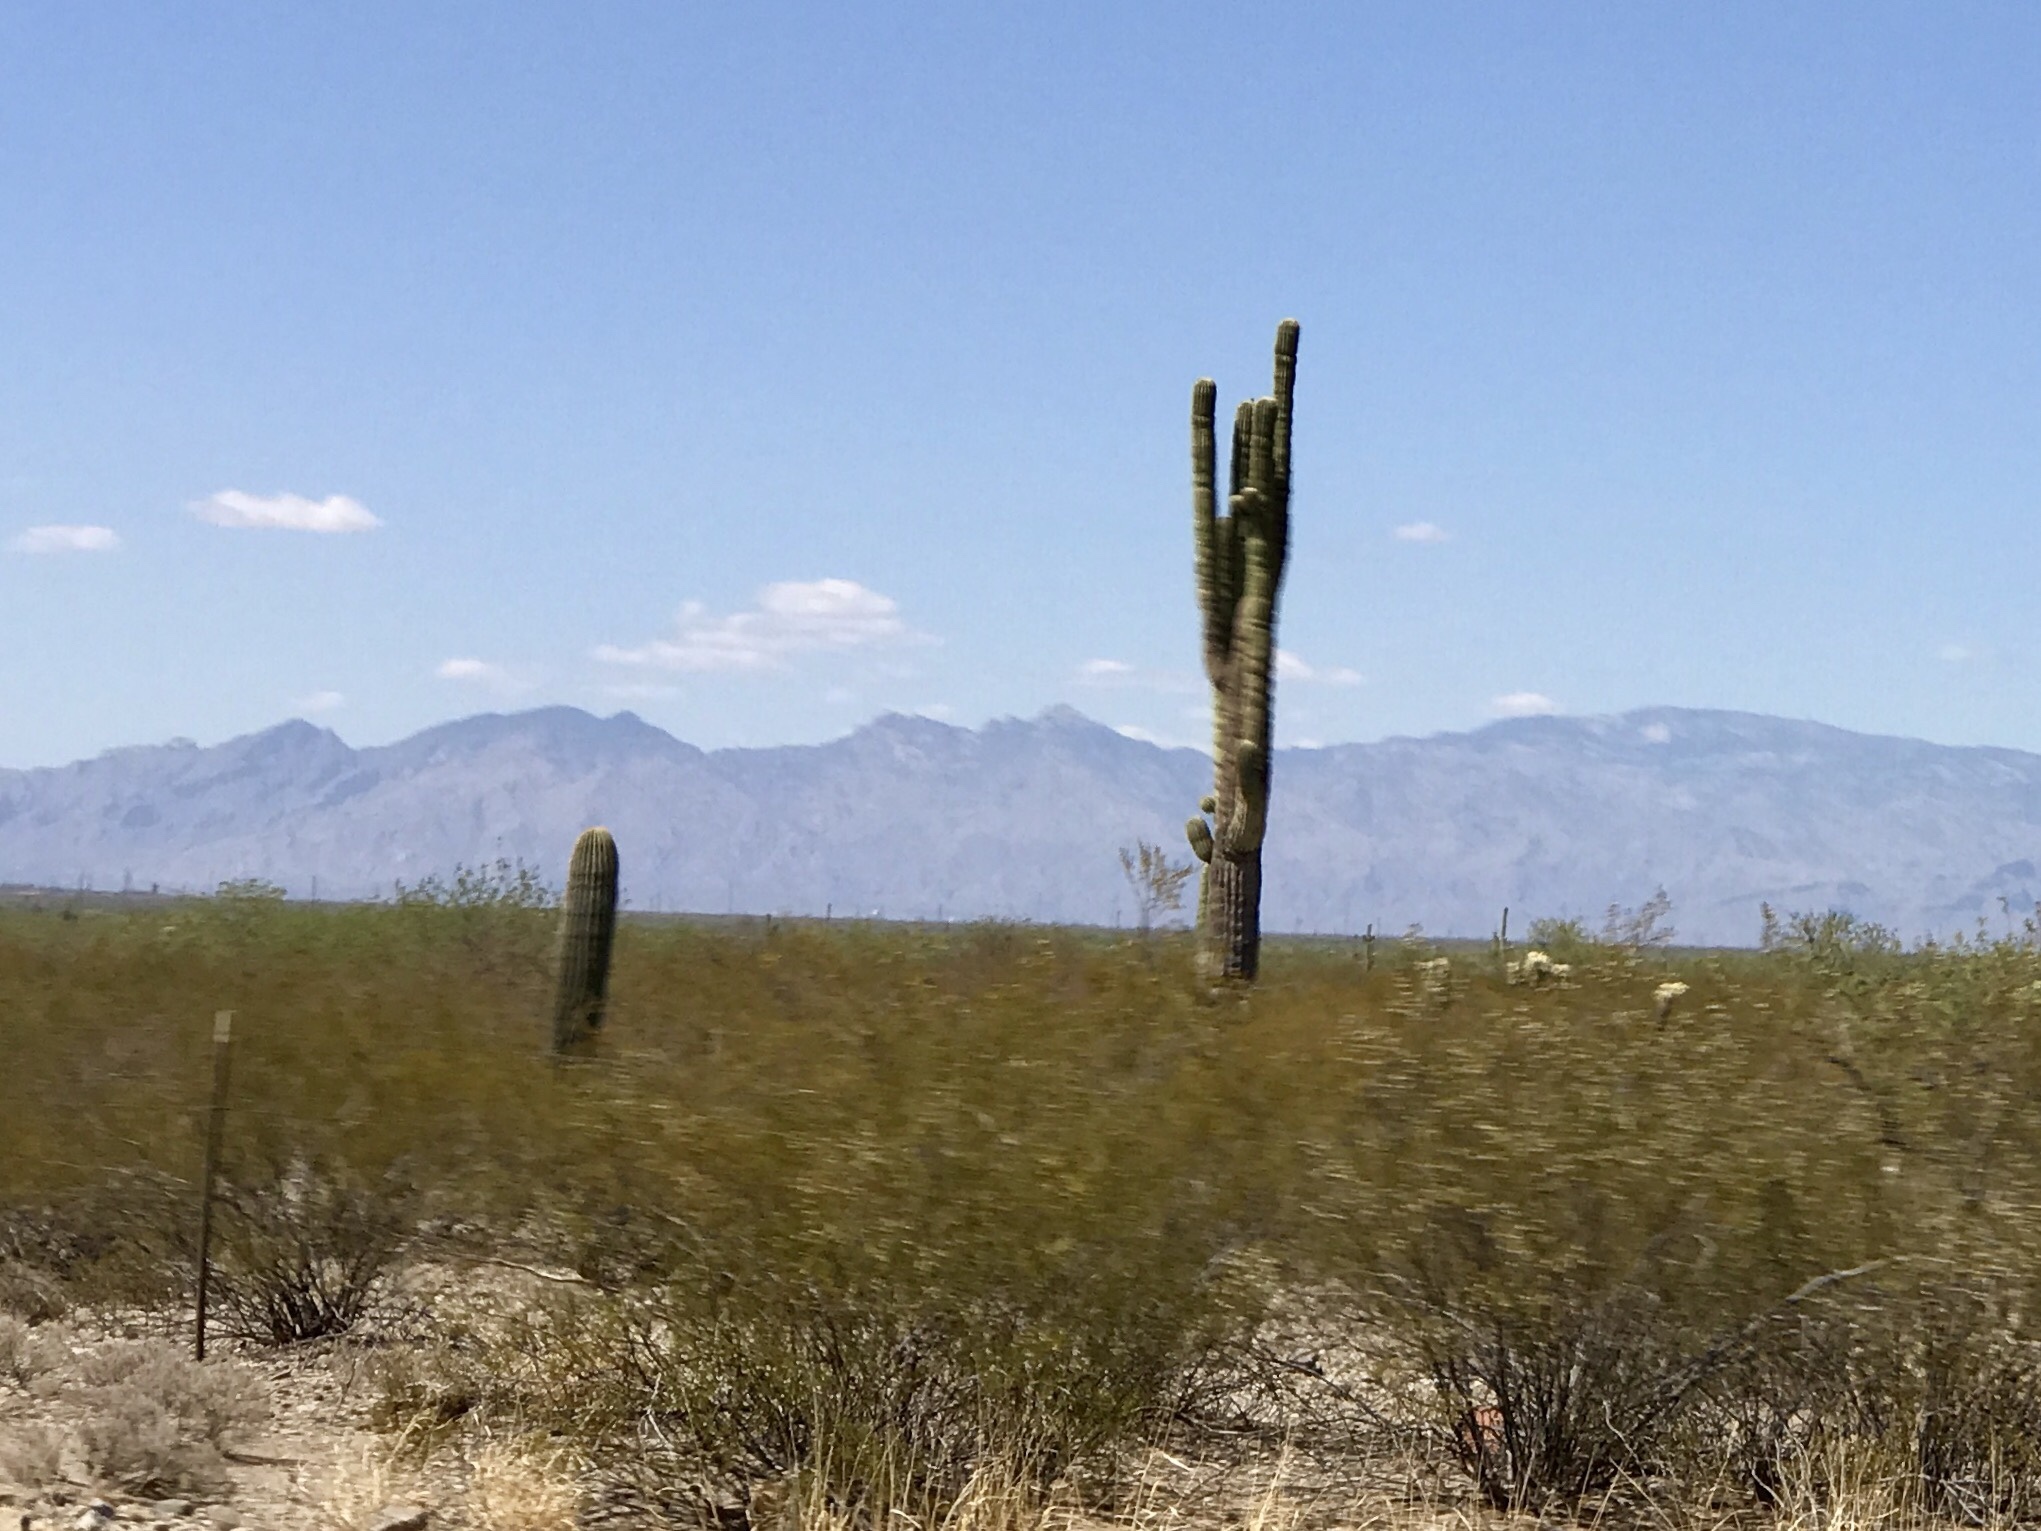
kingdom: Plantae
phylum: Tracheophyta
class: Magnoliopsida
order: Caryophyllales
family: Cactaceae
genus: Carnegiea
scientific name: Carnegiea gigantea
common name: Saguaro
